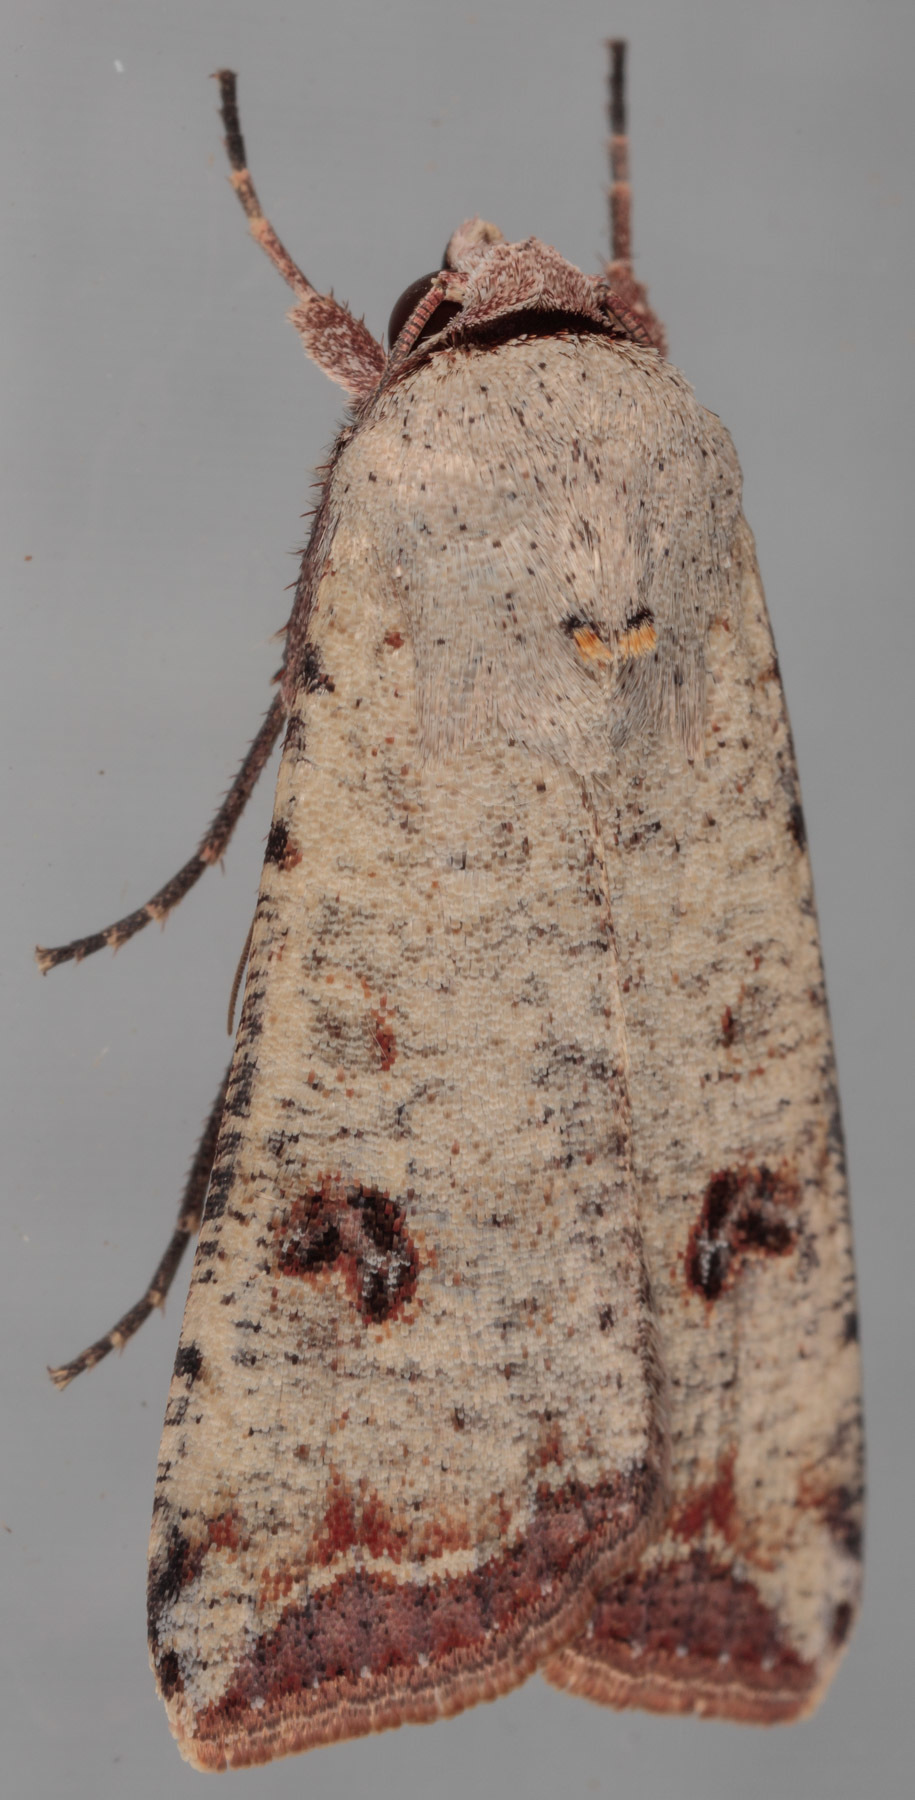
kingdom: Animalia
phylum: Arthropoda
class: Insecta
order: Lepidoptera
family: Noctuidae
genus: Anicla
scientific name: Anicla infecta
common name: Green cutworm
